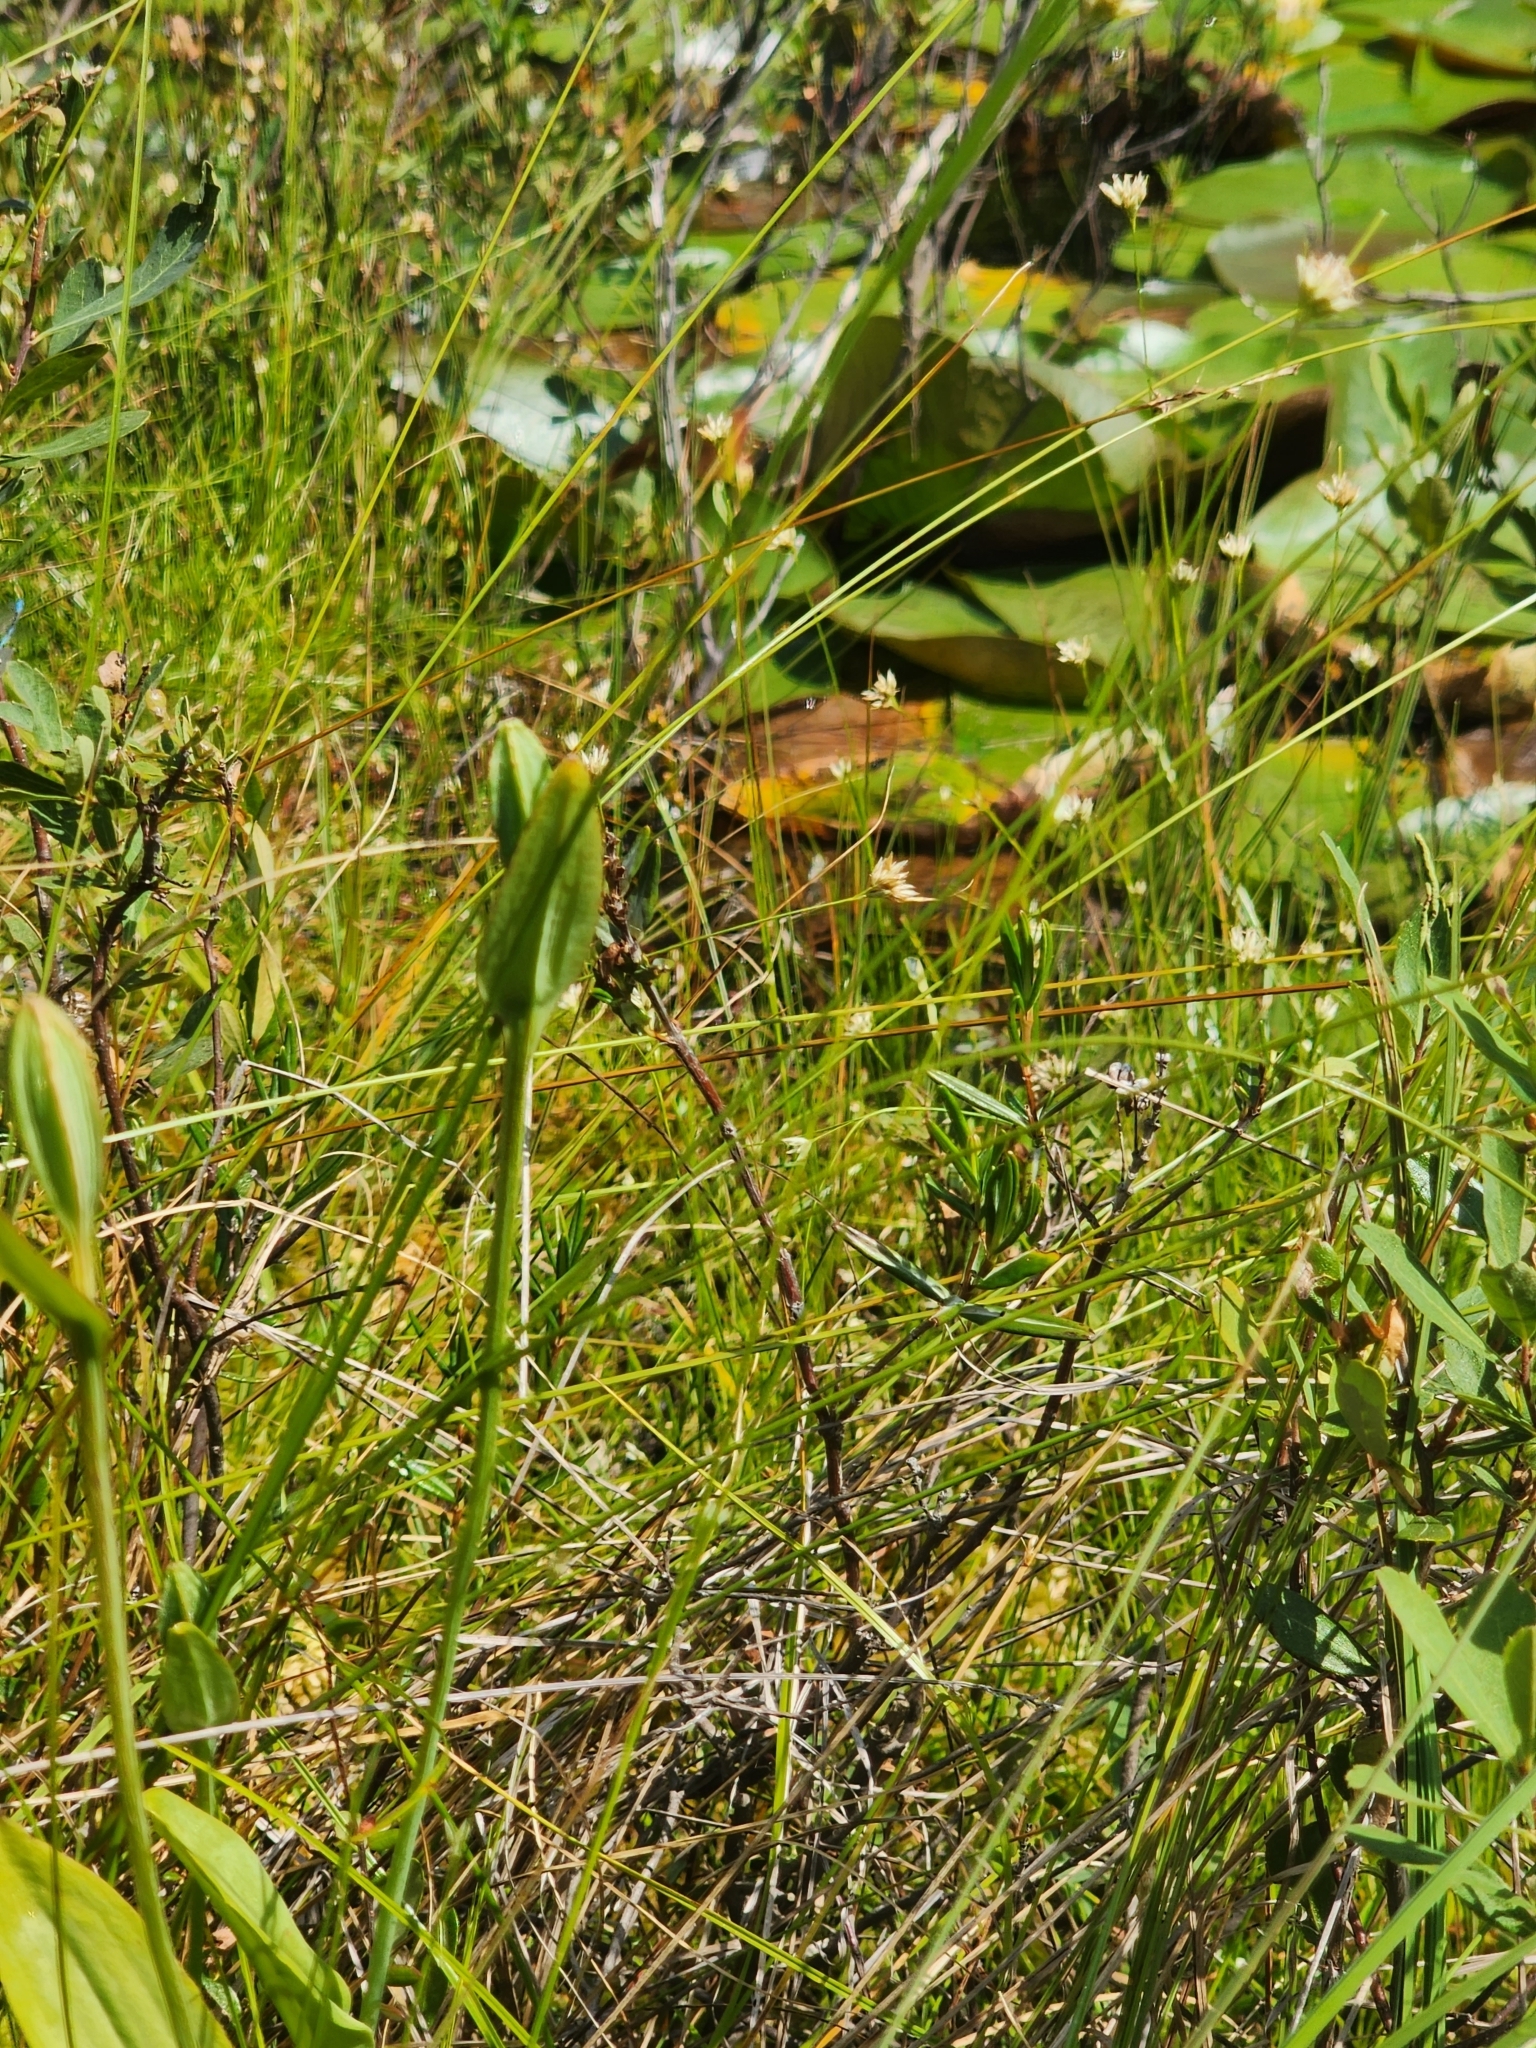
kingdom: Plantae
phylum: Tracheophyta
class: Liliopsida
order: Asparagales
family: Orchidaceae
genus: Pogonia
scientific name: Pogonia ophioglossoides
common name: Rose pogonia
